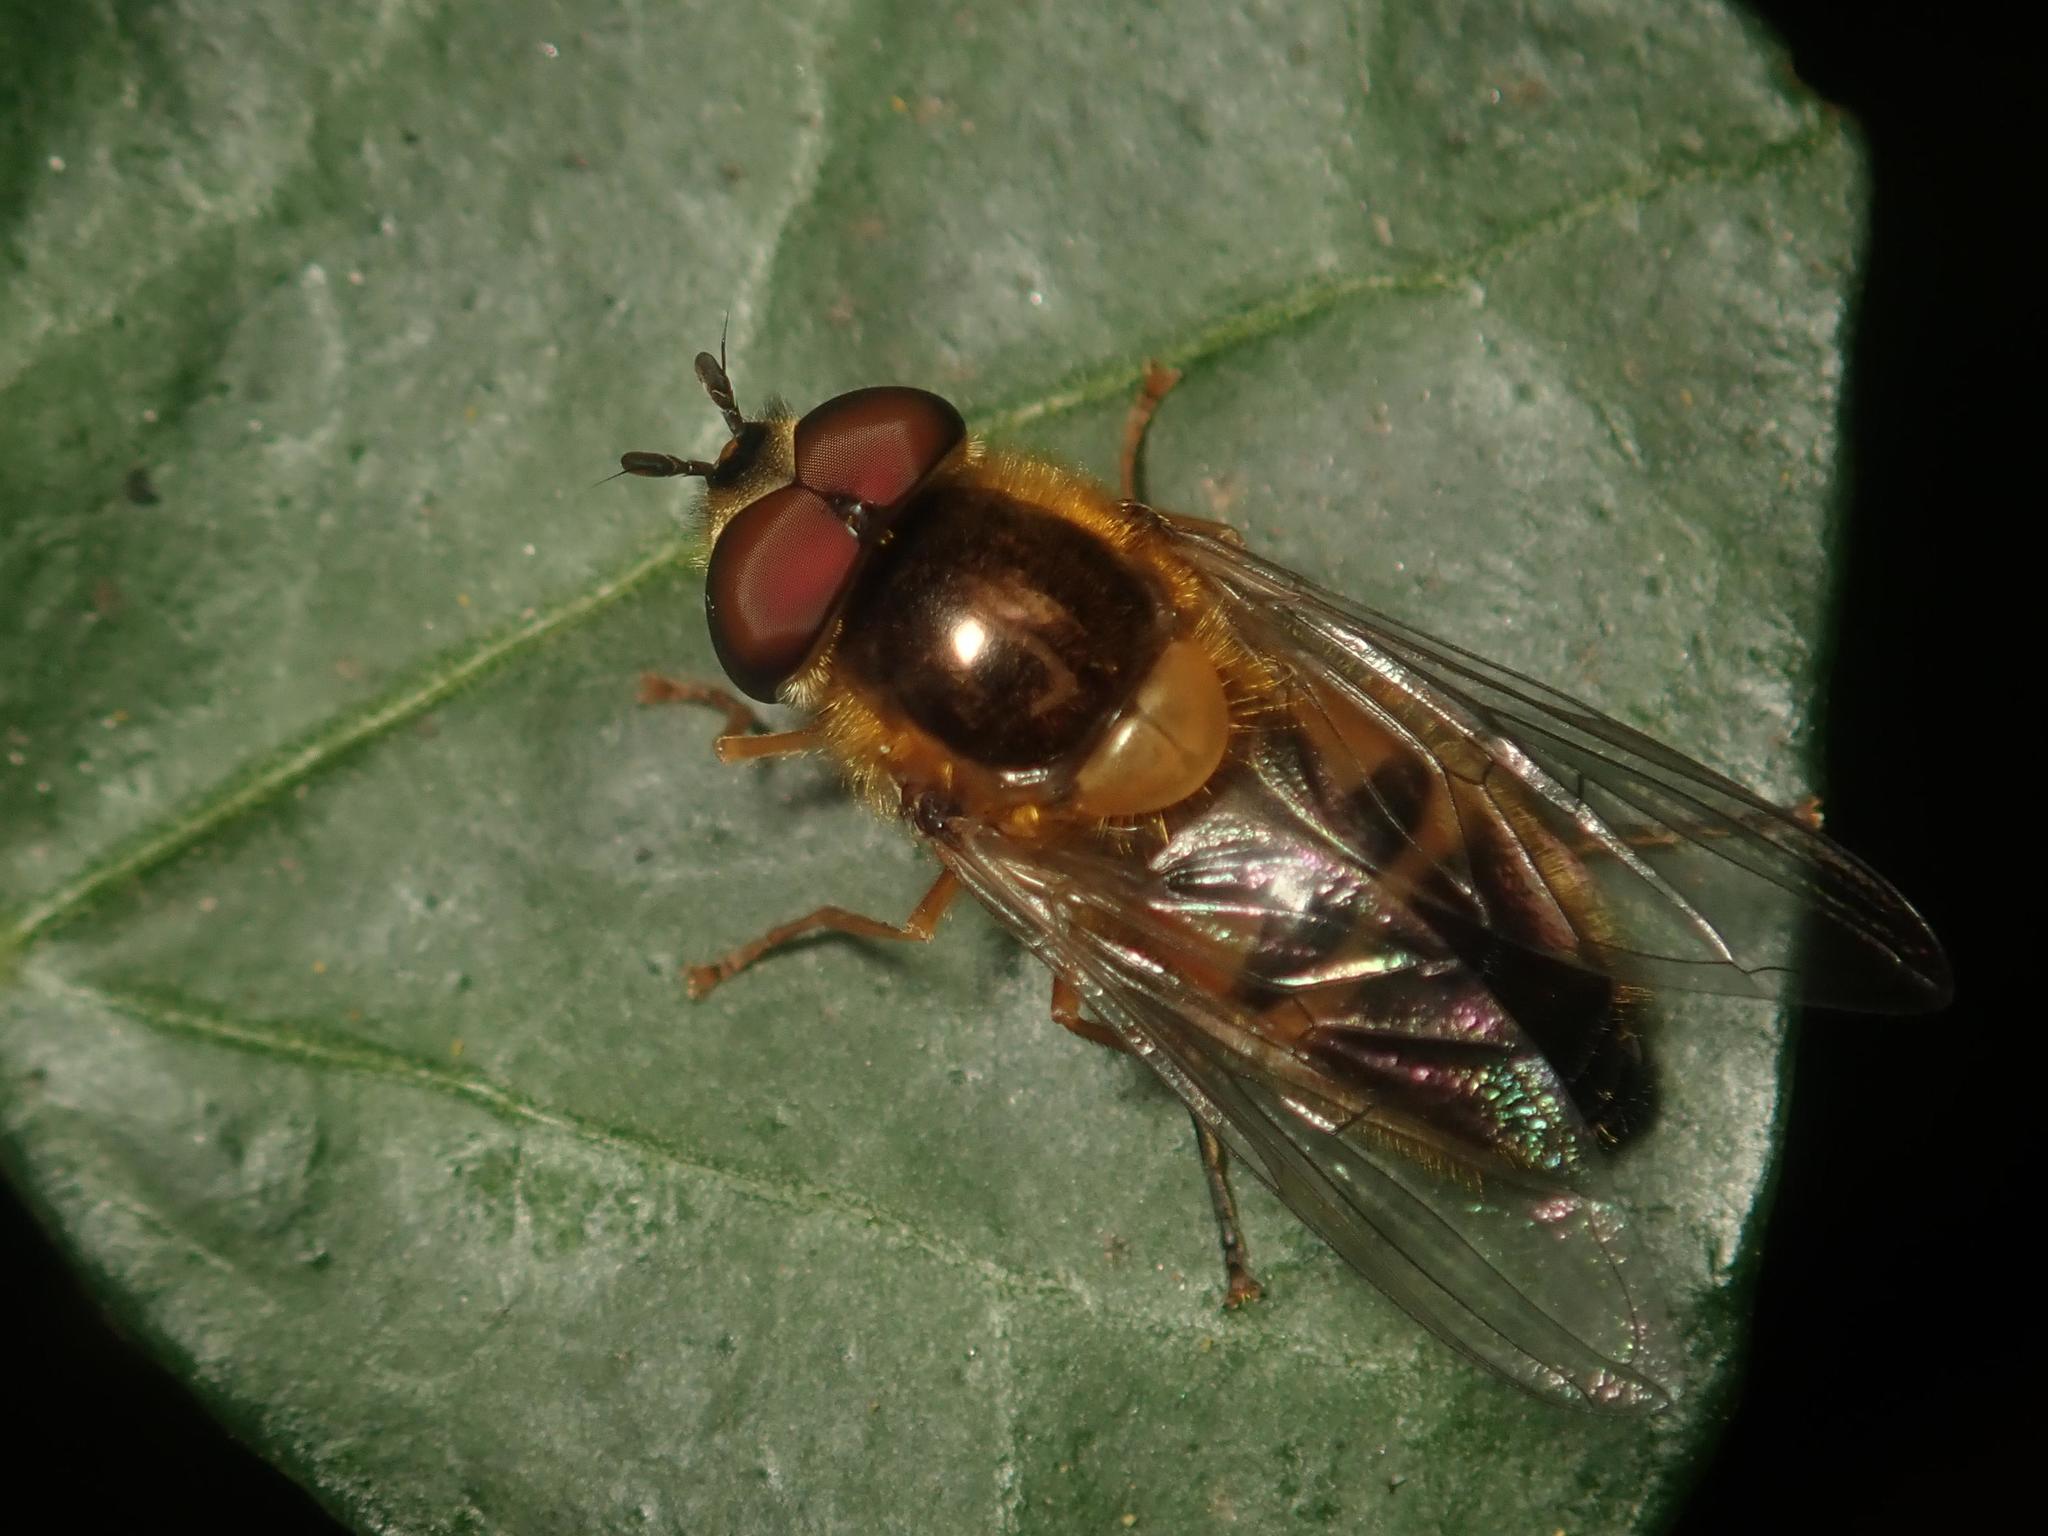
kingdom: Animalia
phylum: Arthropoda
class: Insecta
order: Diptera
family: Syrphidae
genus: Epistrophe
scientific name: Epistrophe eligans
